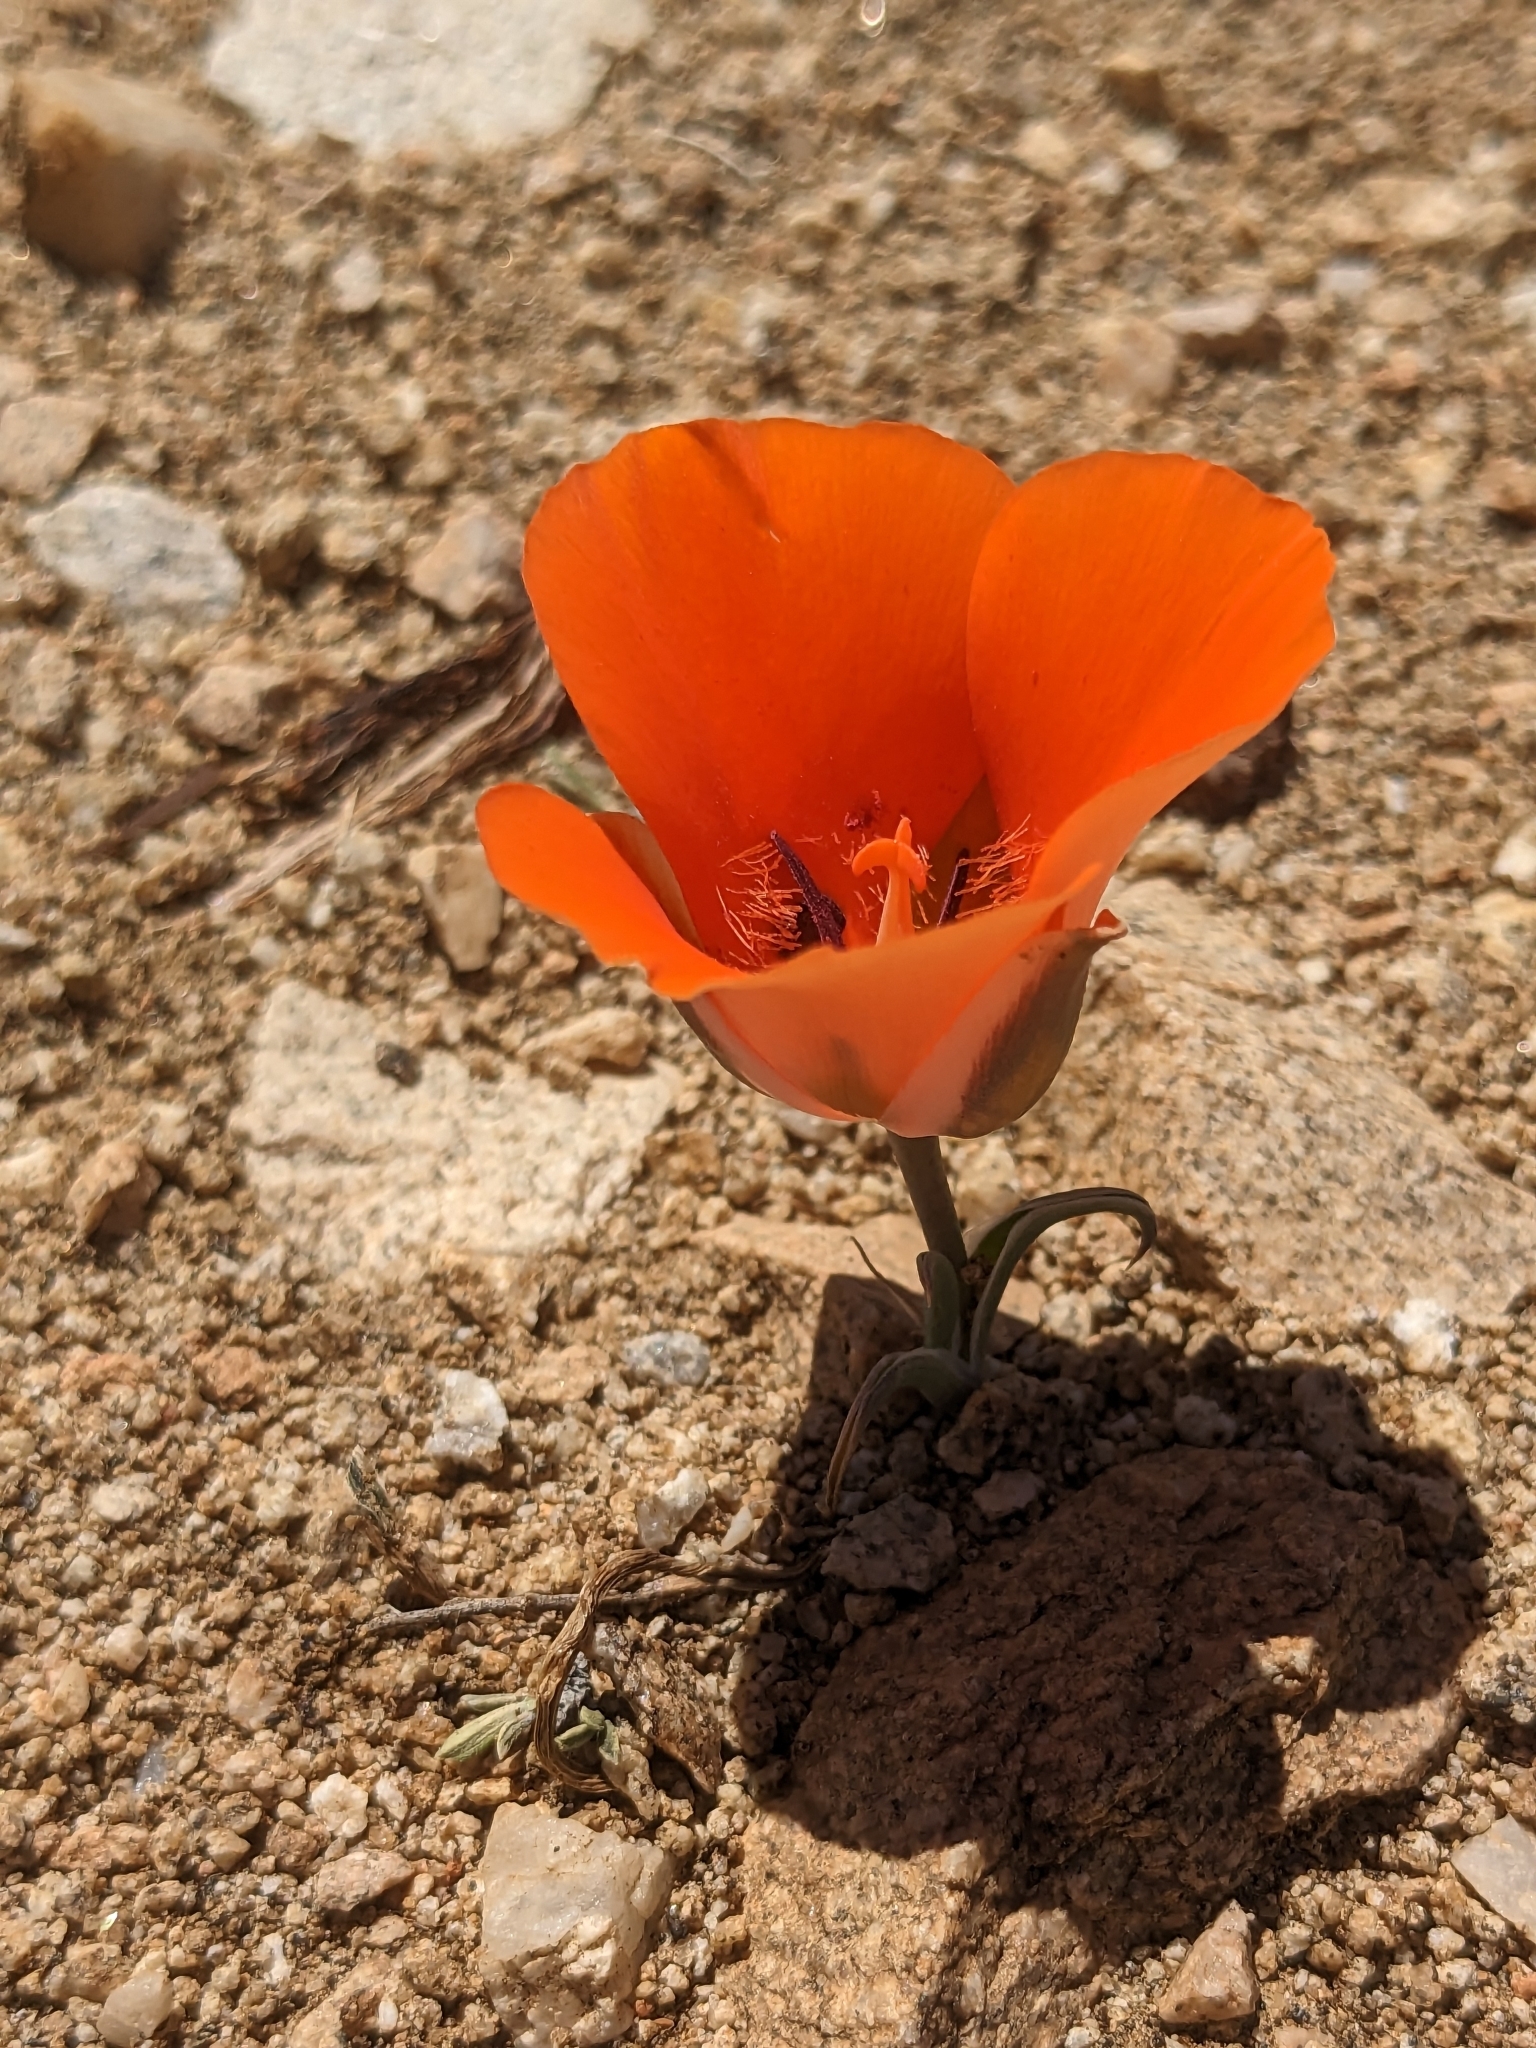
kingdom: Plantae
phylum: Tracheophyta
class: Liliopsida
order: Liliales
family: Liliaceae
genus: Calochortus
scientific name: Calochortus kennedyi
